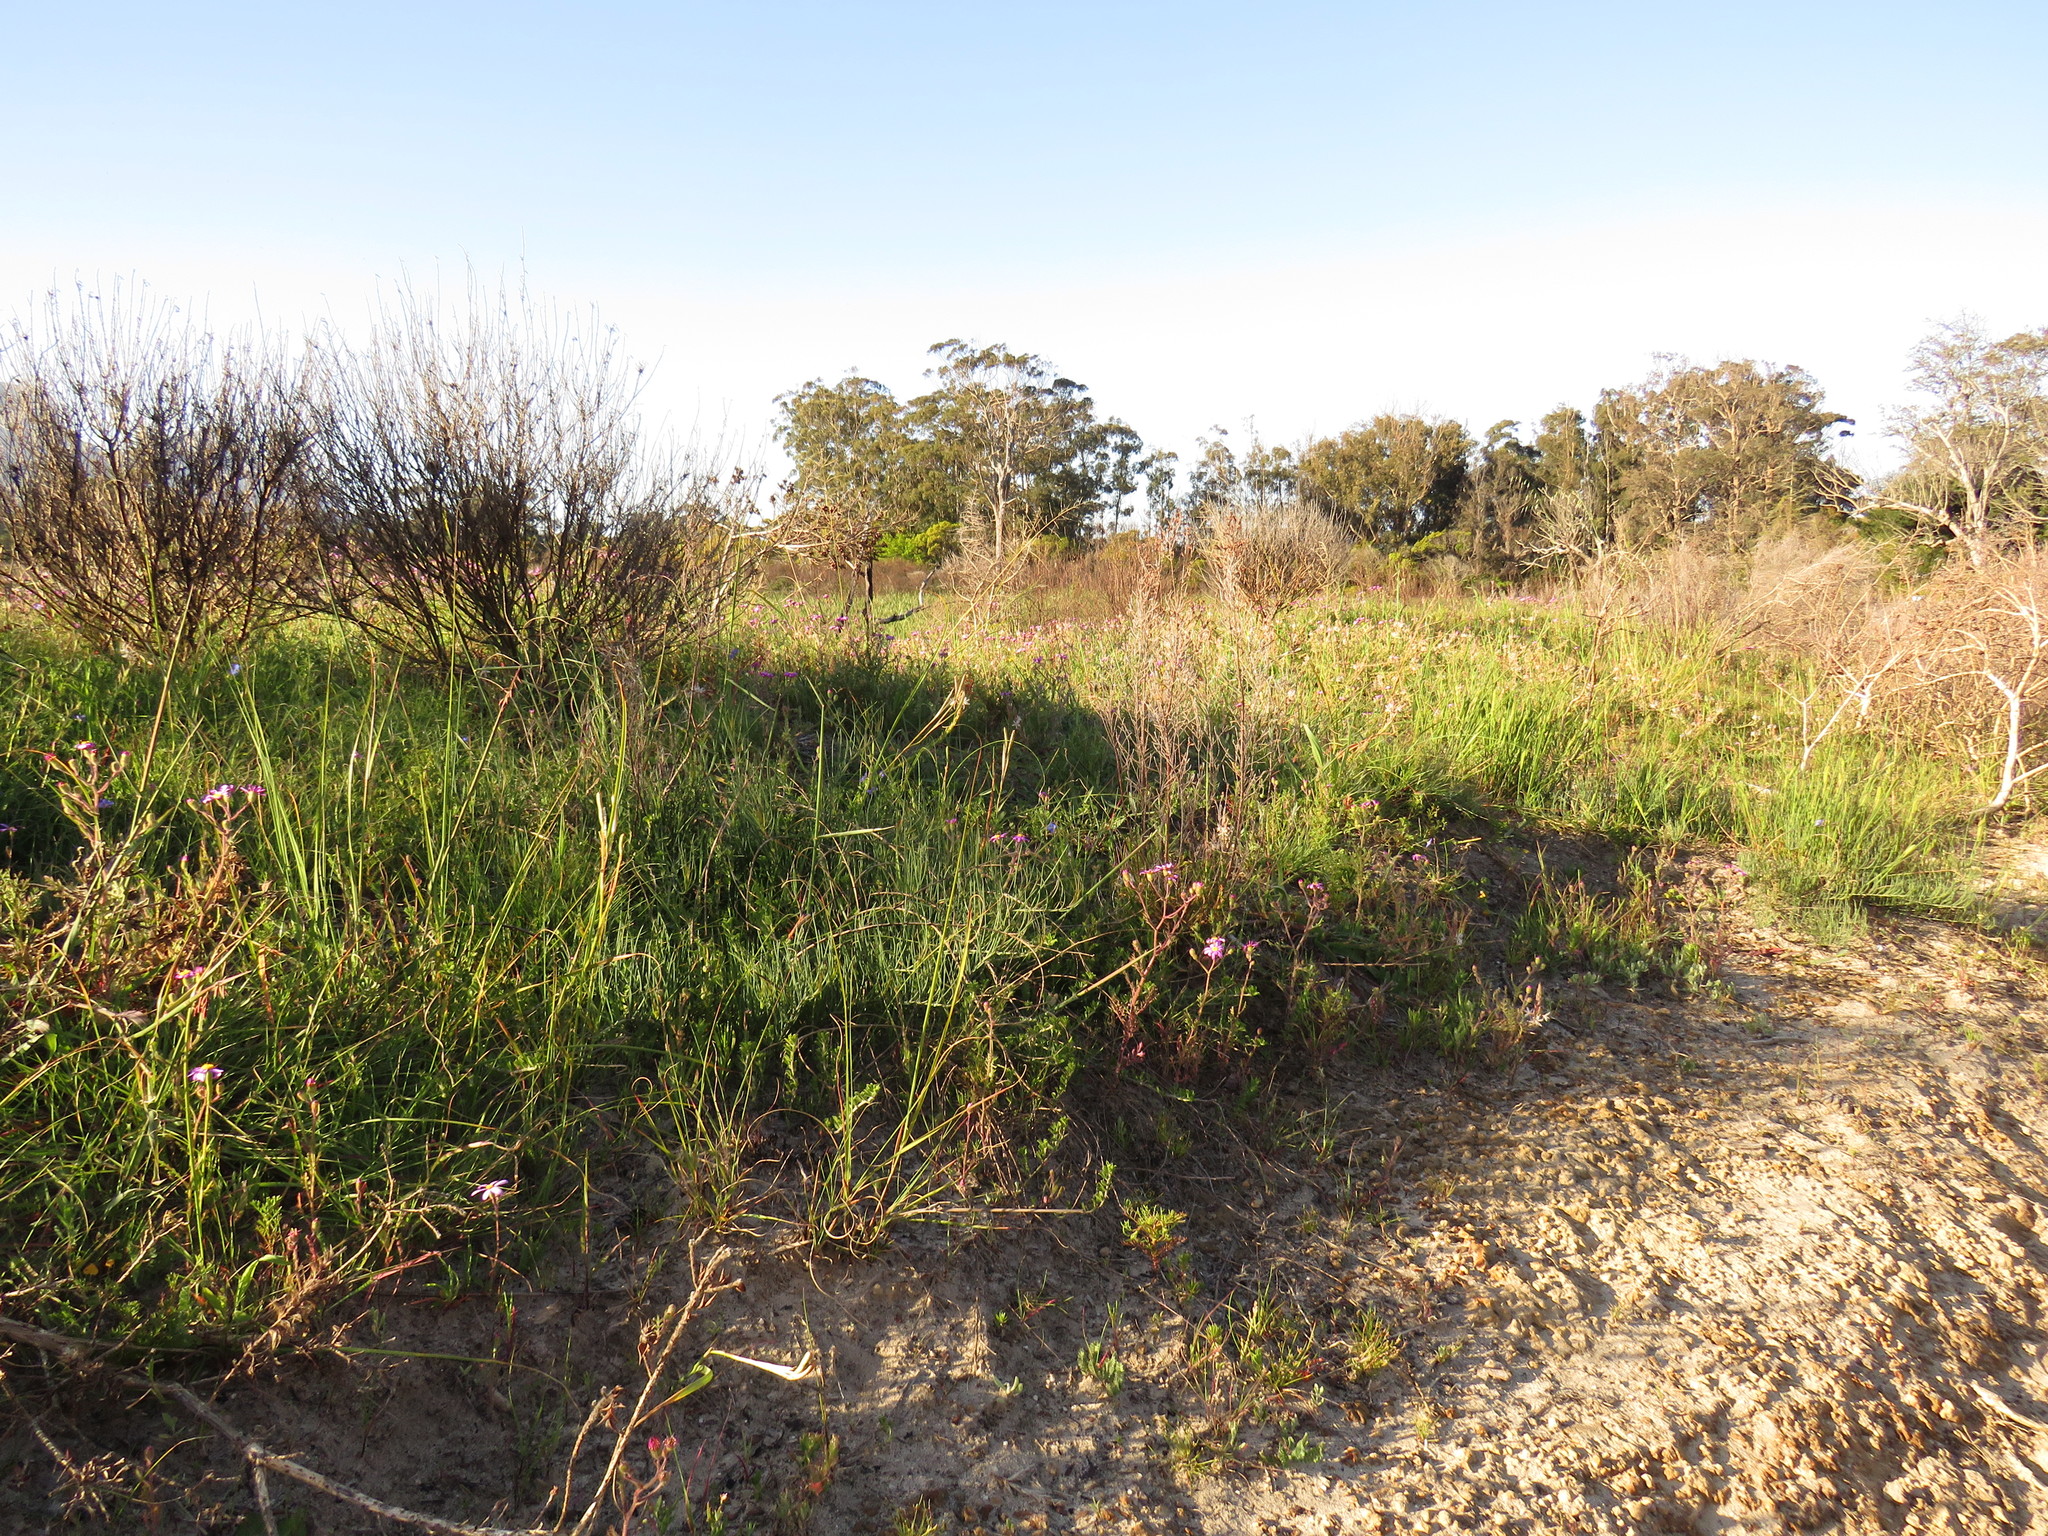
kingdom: Plantae
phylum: Tracheophyta
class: Magnoliopsida
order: Fabales
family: Fabaceae
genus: Lebeckia
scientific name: Lebeckia contaminata
